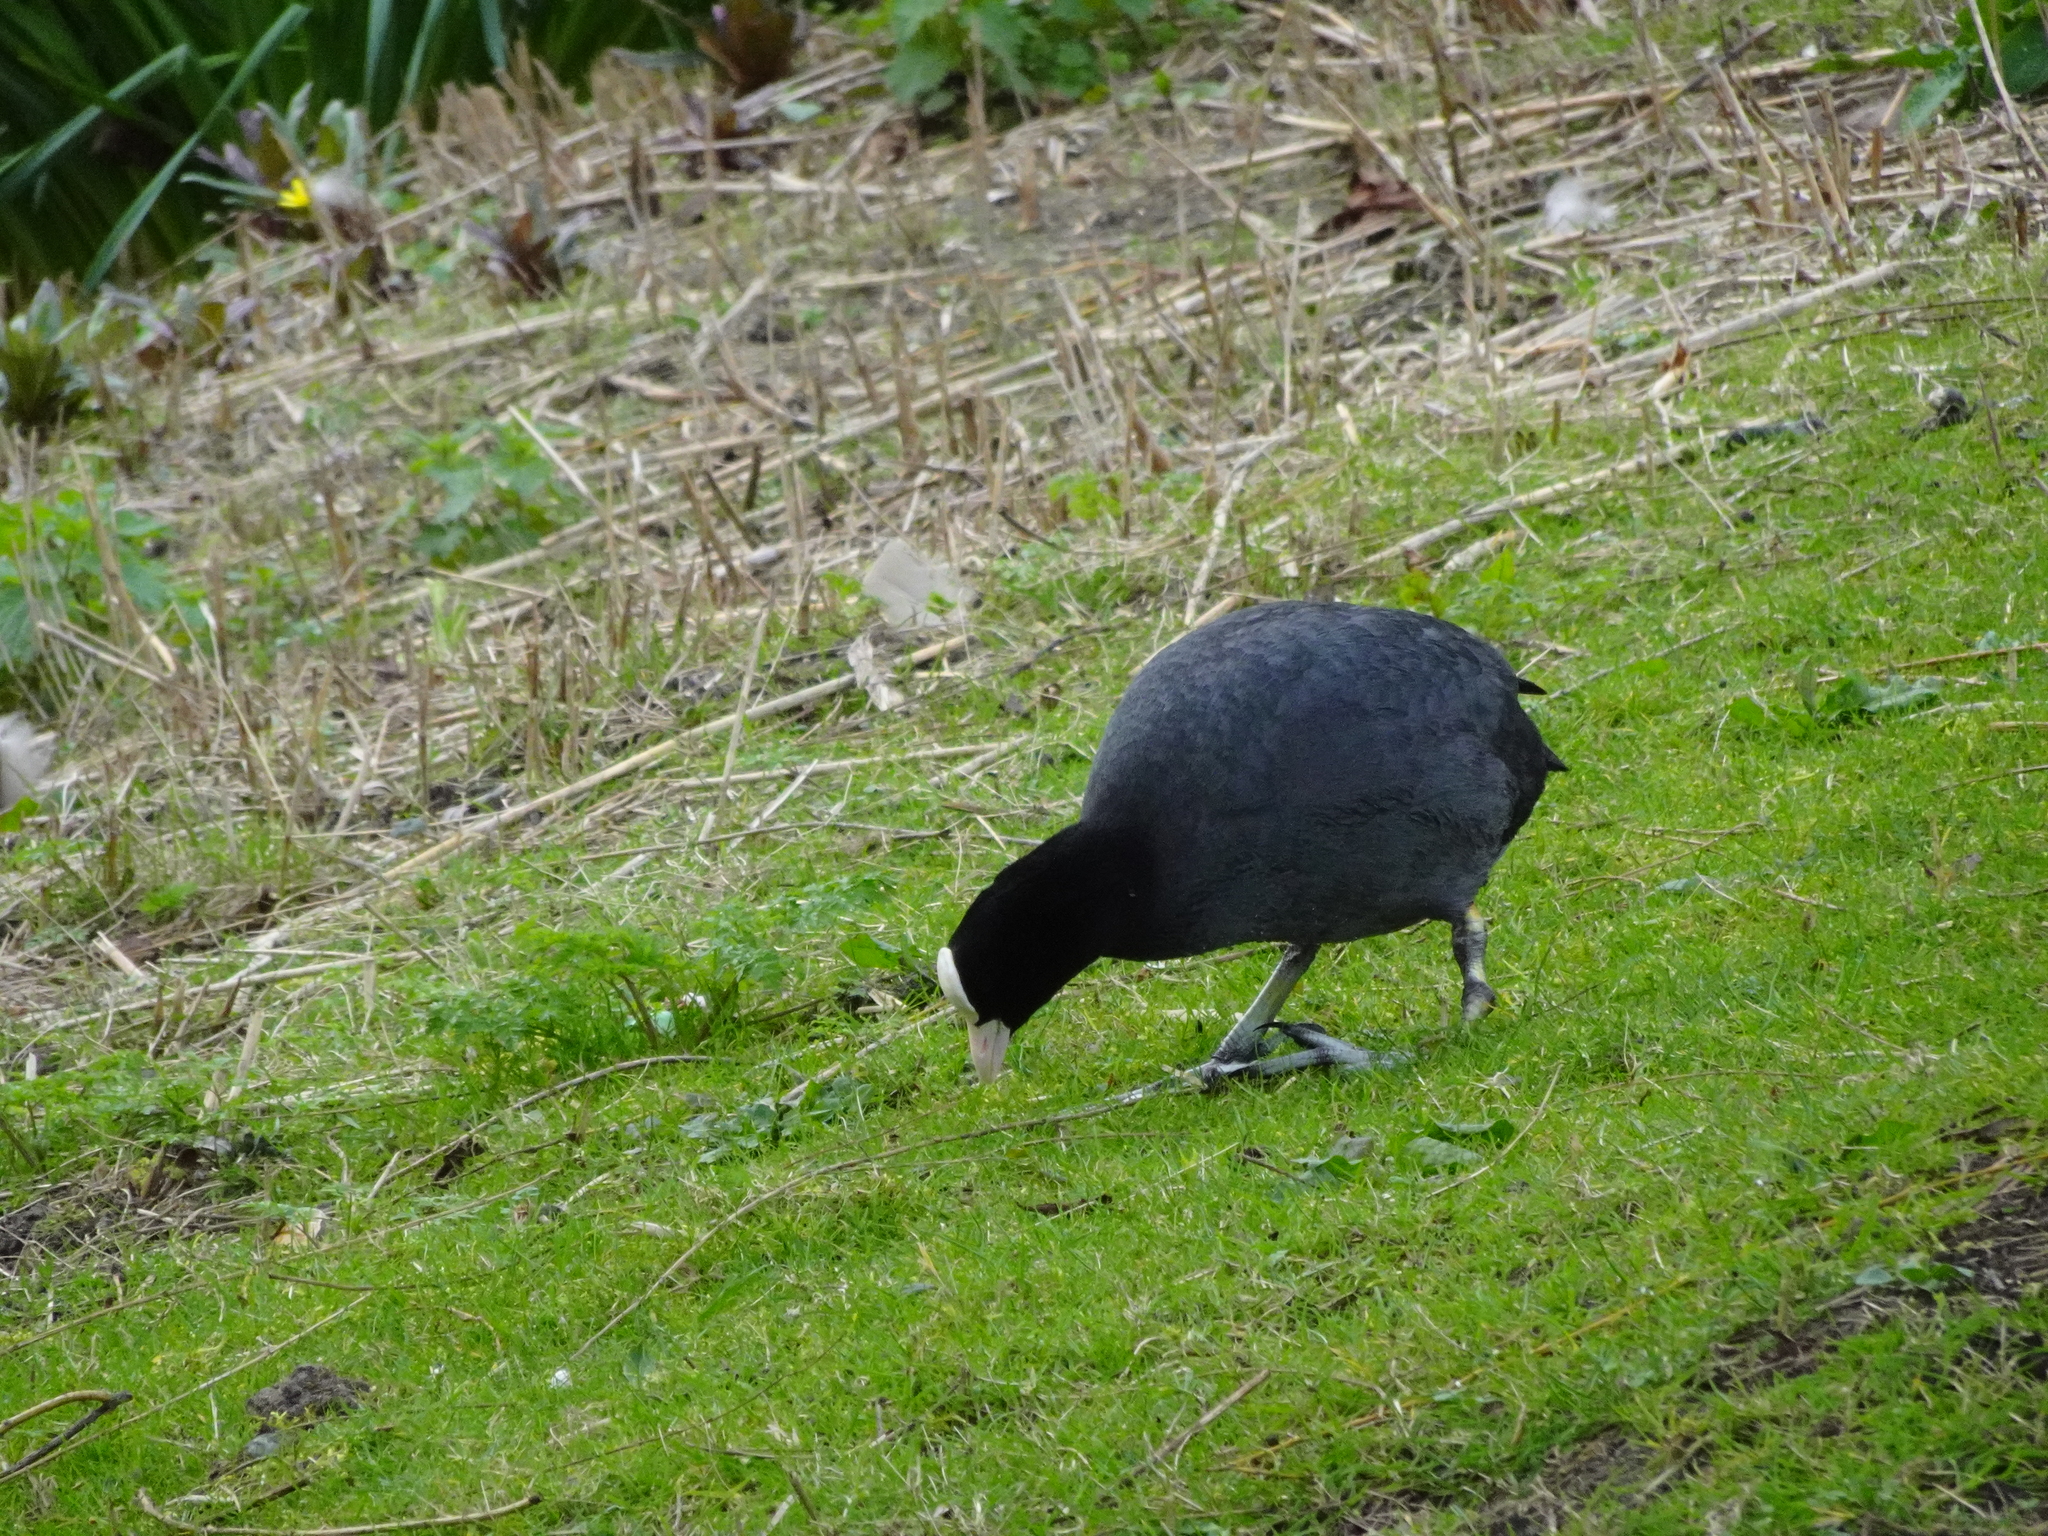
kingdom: Animalia
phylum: Chordata
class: Aves
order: Gruiformes
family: Rallidae
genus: Fulica
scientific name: Fulica atra
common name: Eurasian coot
